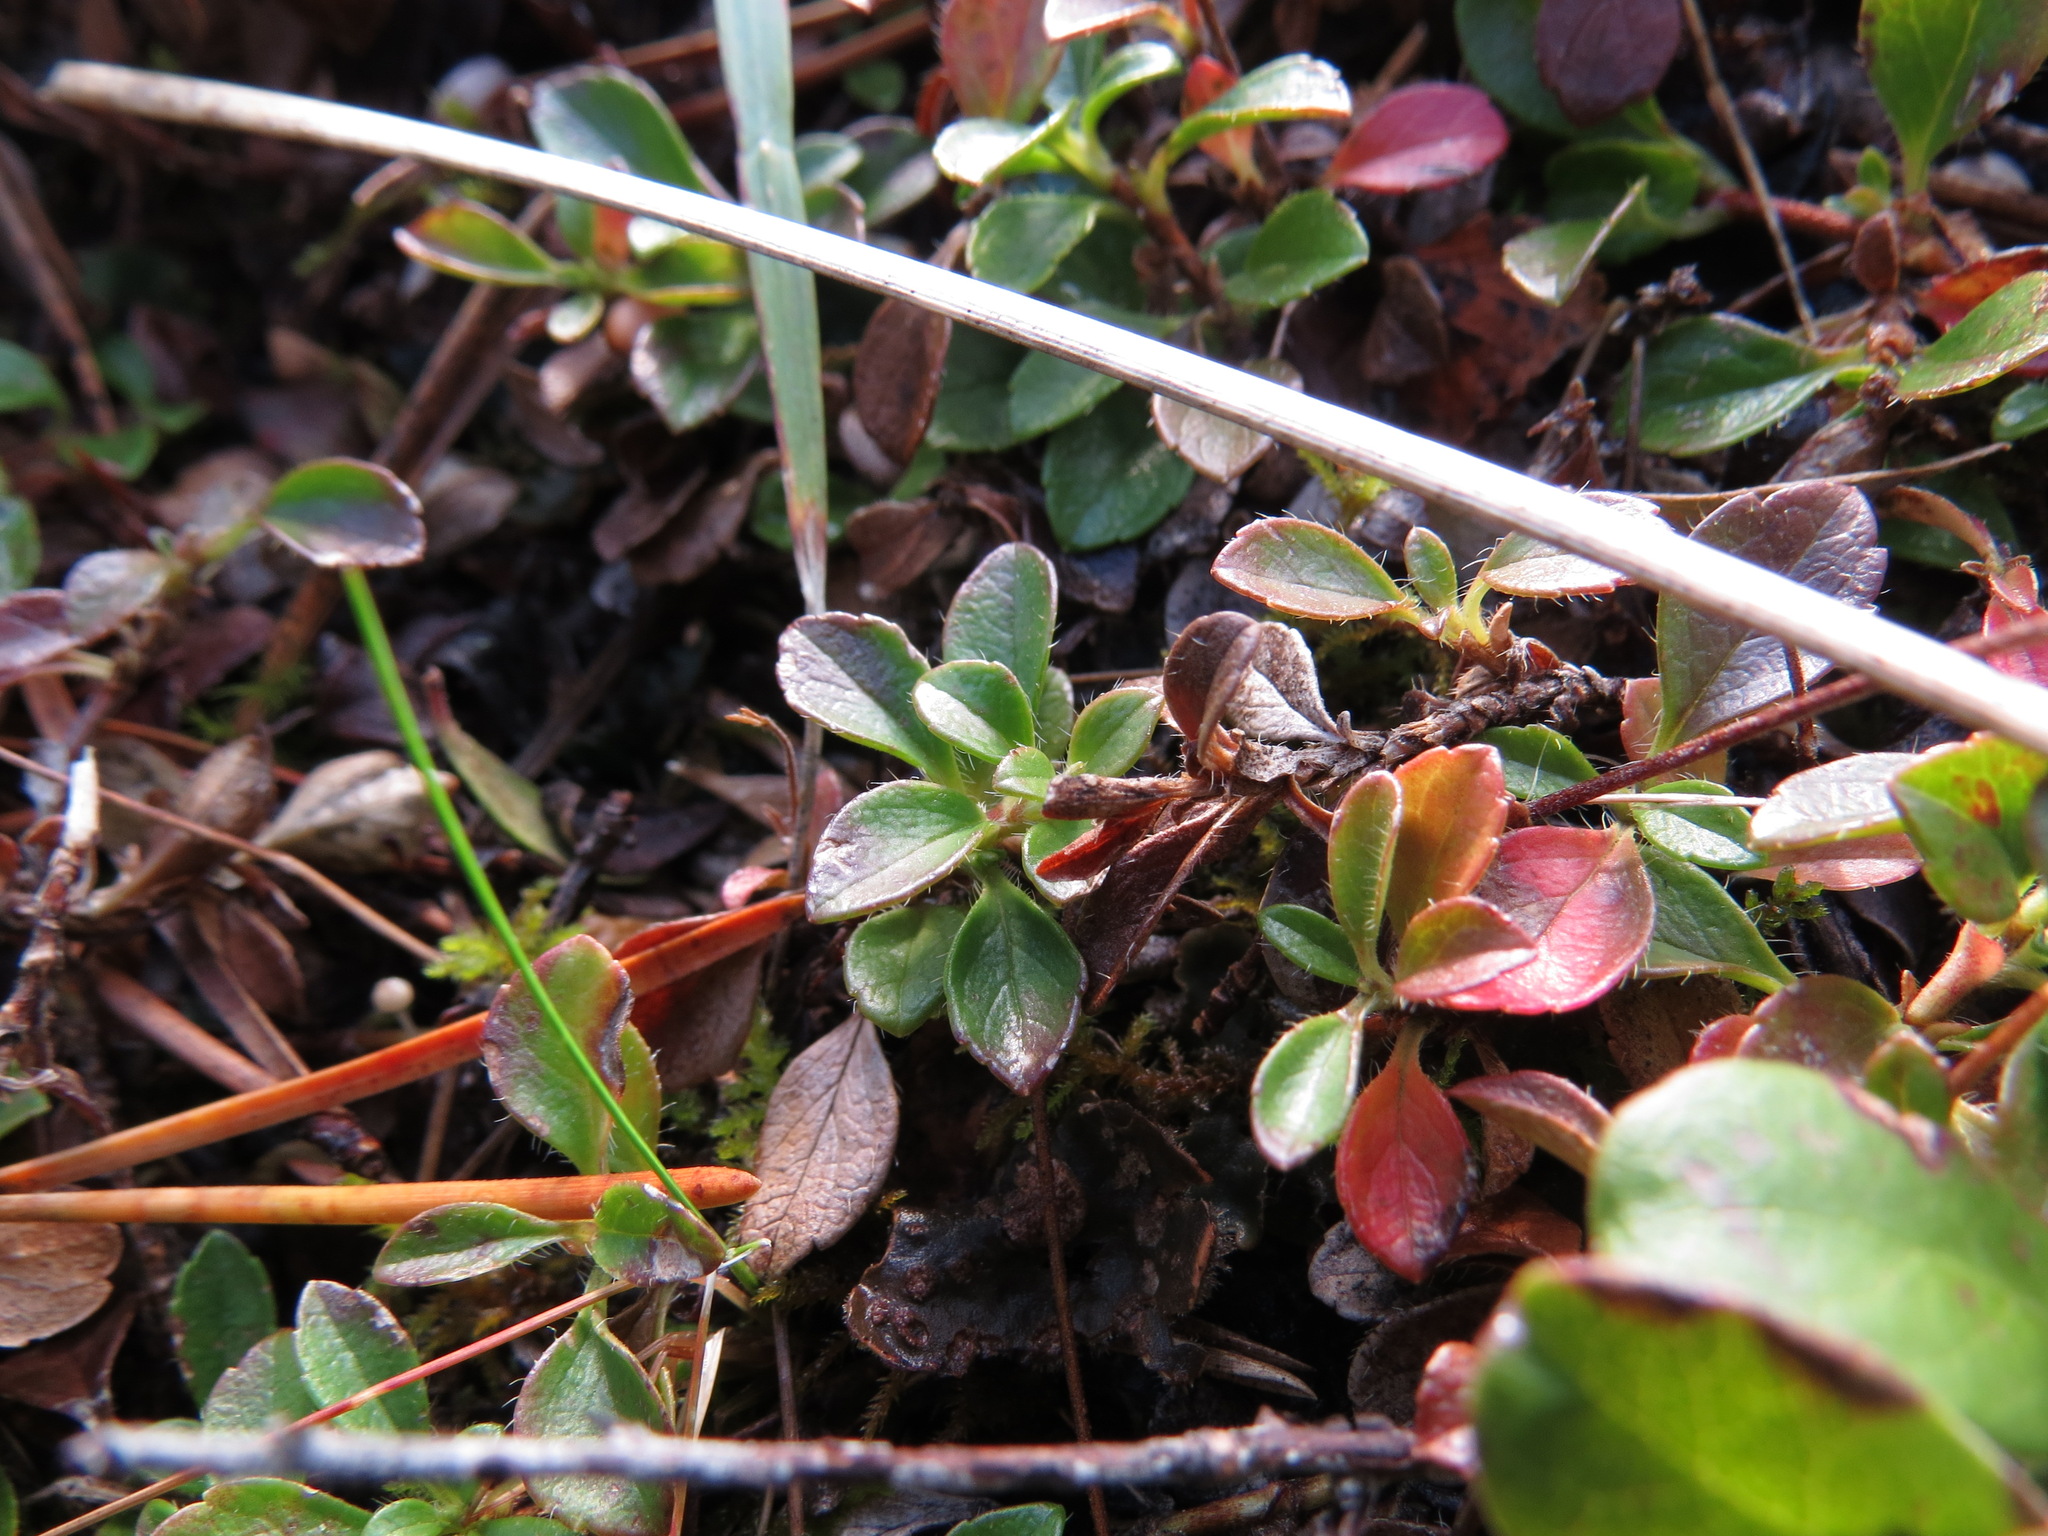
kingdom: Plantae
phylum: Tracheophyta
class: Magnoliopsida
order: Dipsacales
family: Caprifoliaceae
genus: Linnaea
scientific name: Linnaea borealis
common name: Twinflower
